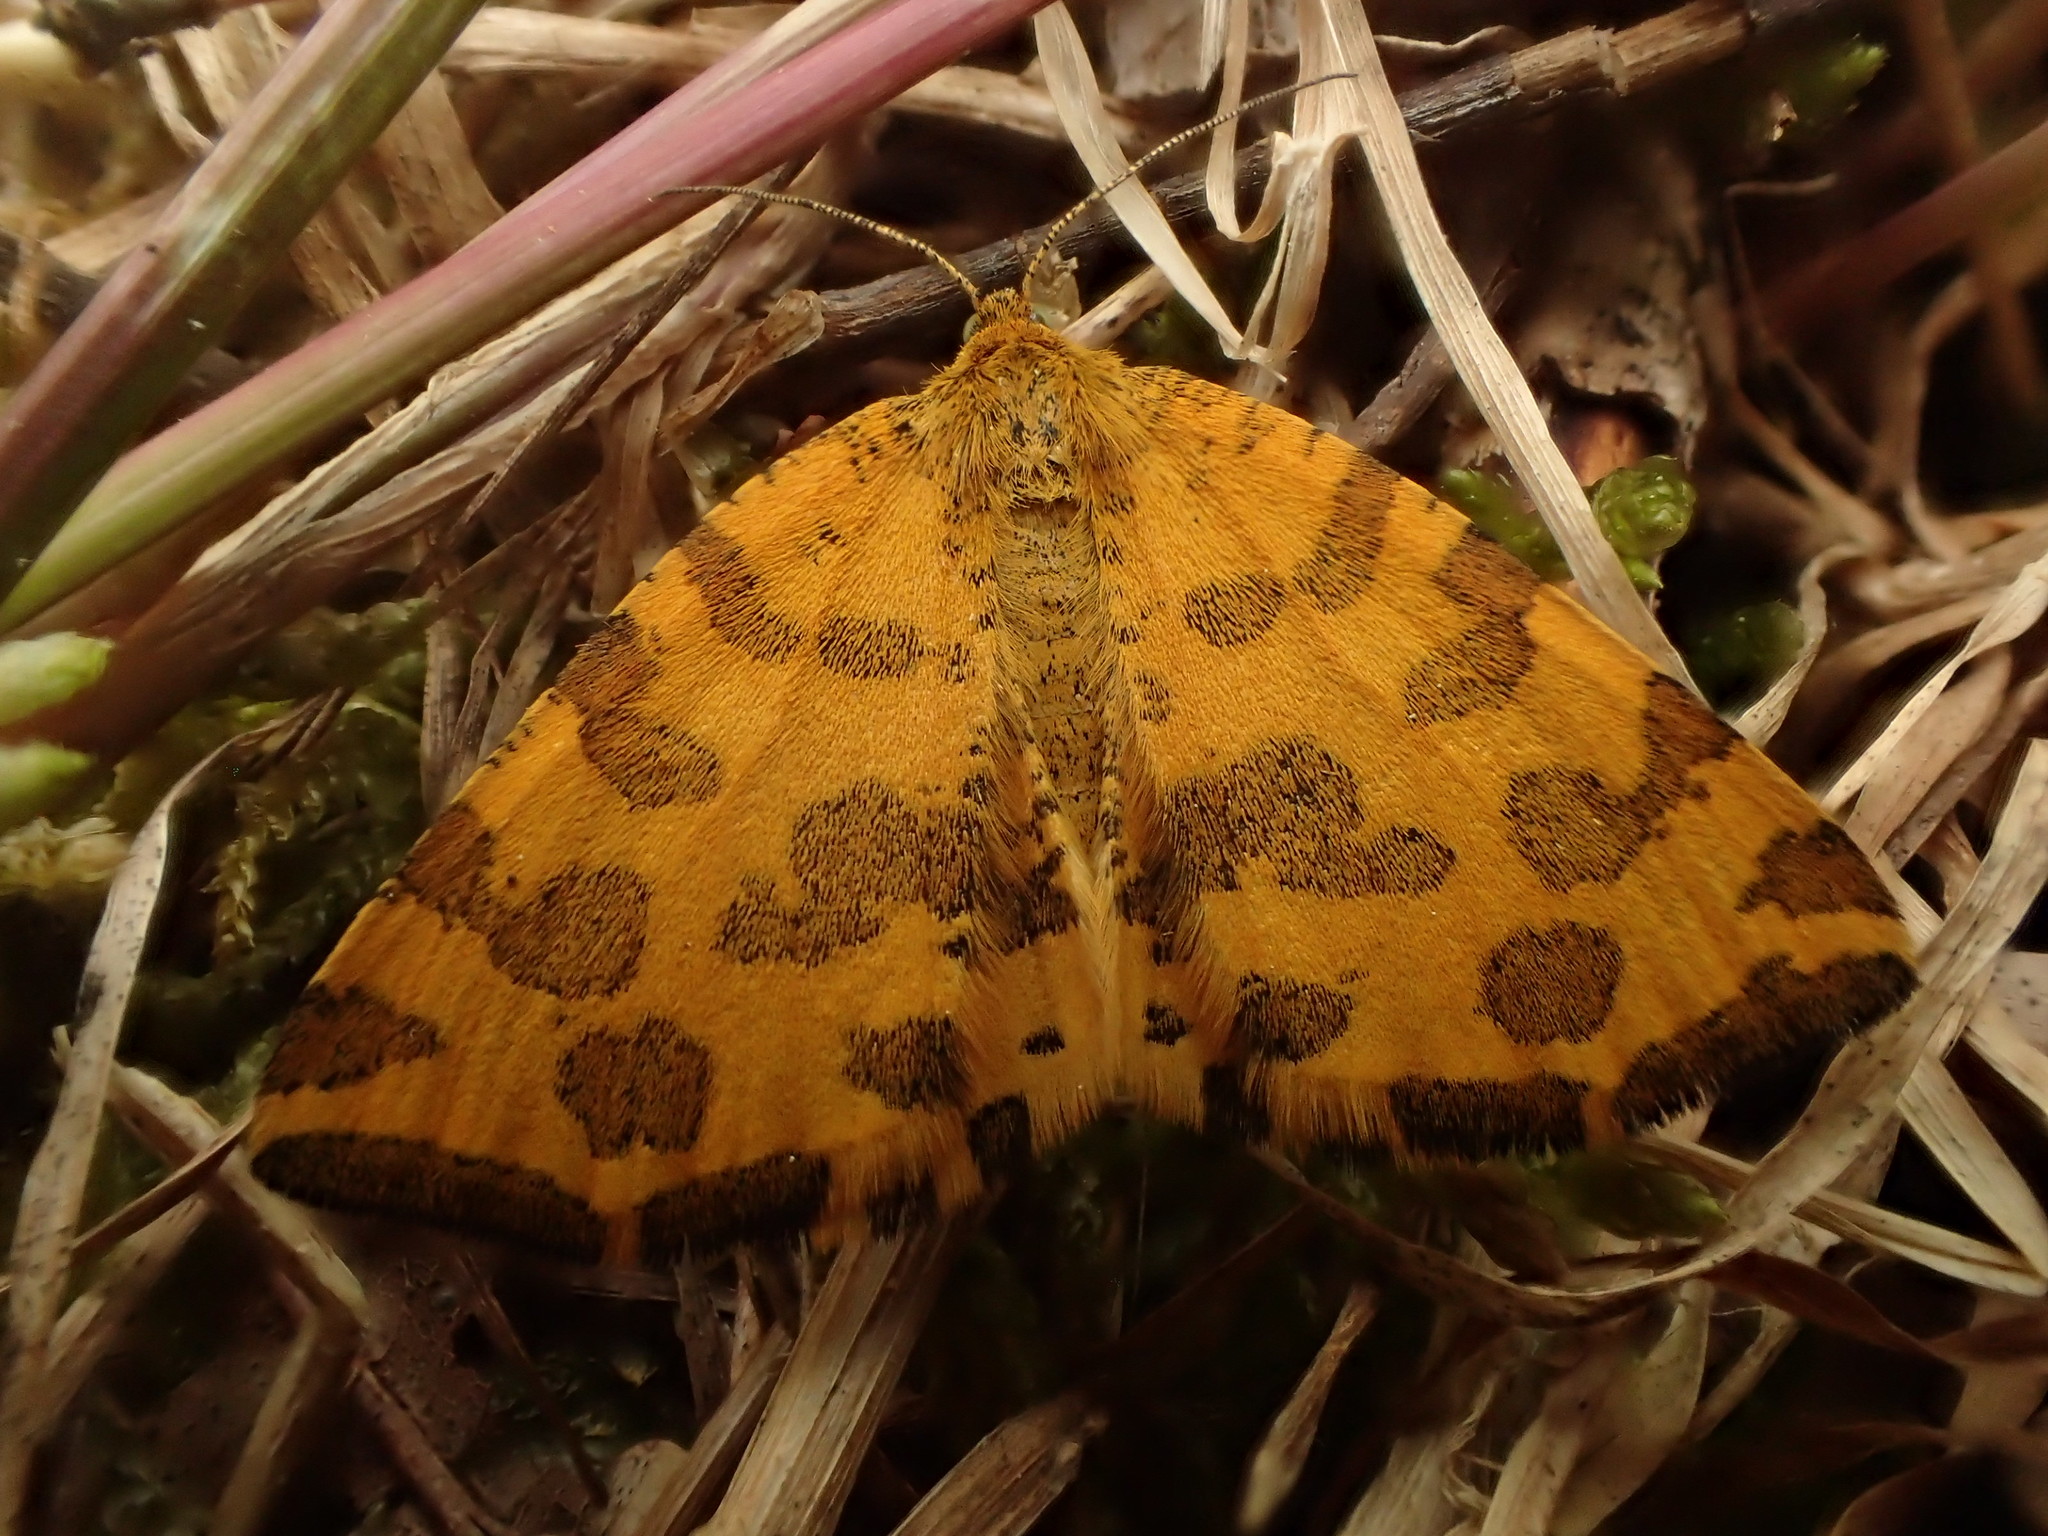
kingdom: Animalia
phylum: Arthropoda
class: Insecta
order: Lepidoptera
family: Geometridae
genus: Pseudopanthera
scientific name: Pseudopanthera macularia
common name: Speckled yellow
